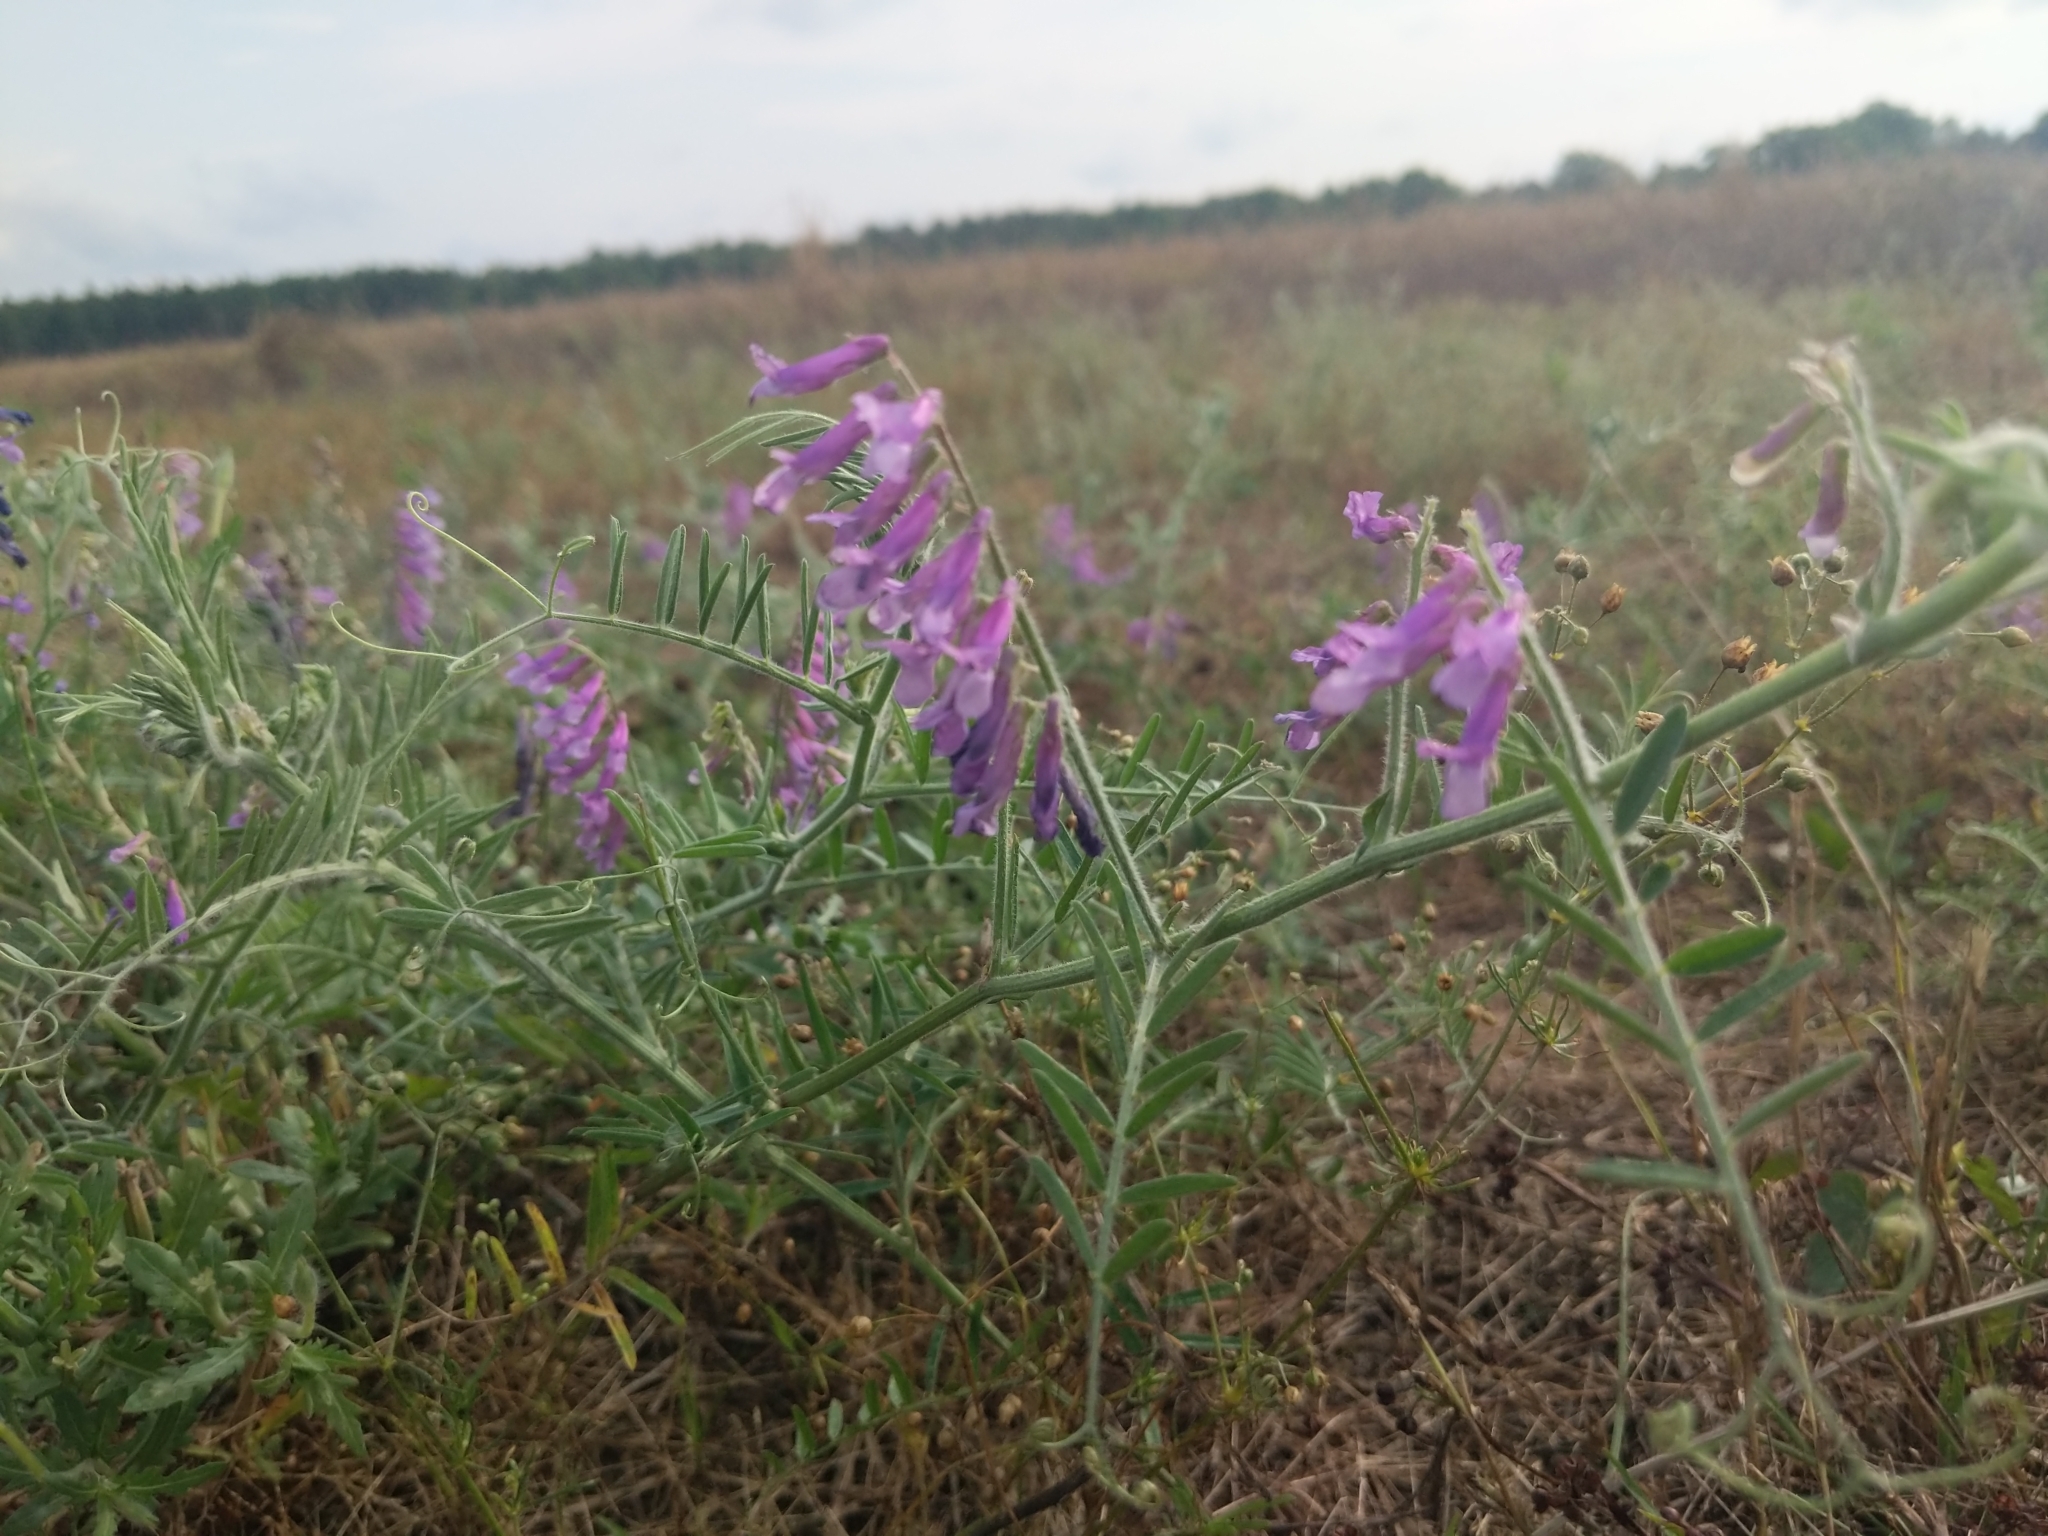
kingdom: Plantae
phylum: Tracheophyta
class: Magnoliopsida
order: Fabales
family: Fabaceae
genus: Vicia
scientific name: Vicia villosa
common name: Fodder vetch
